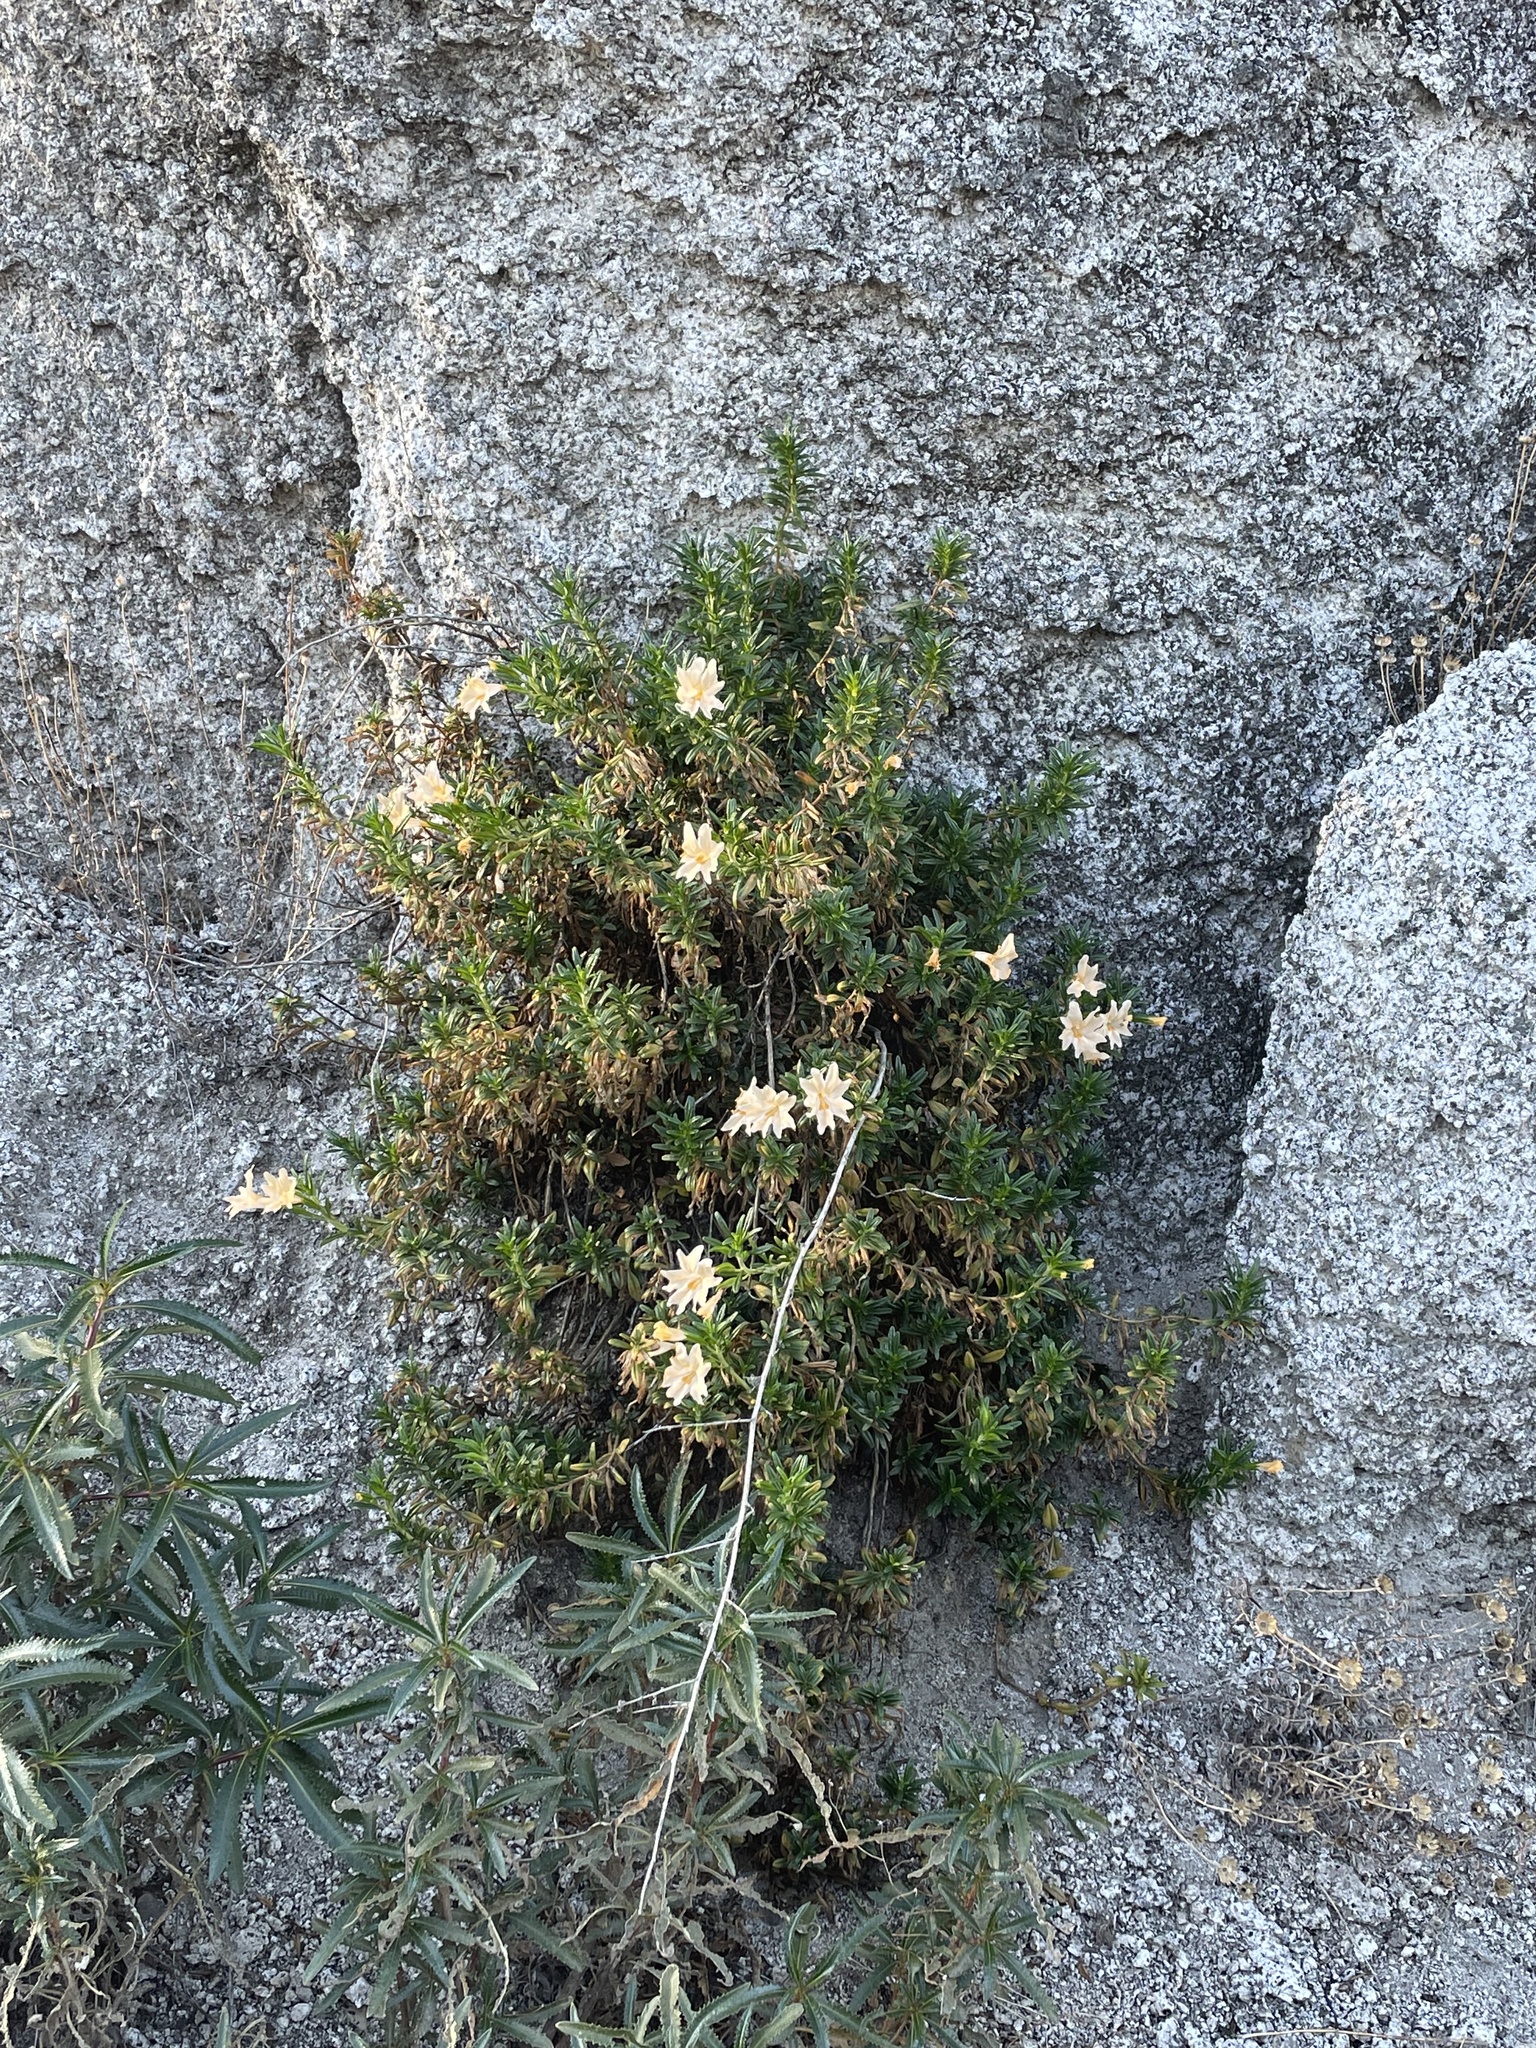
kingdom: Plantae
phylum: Tracheophyta
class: Magnoliopsida
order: Lamiales
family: Phrymaceae
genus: Diplacus
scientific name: Diplacus grandiflorus
